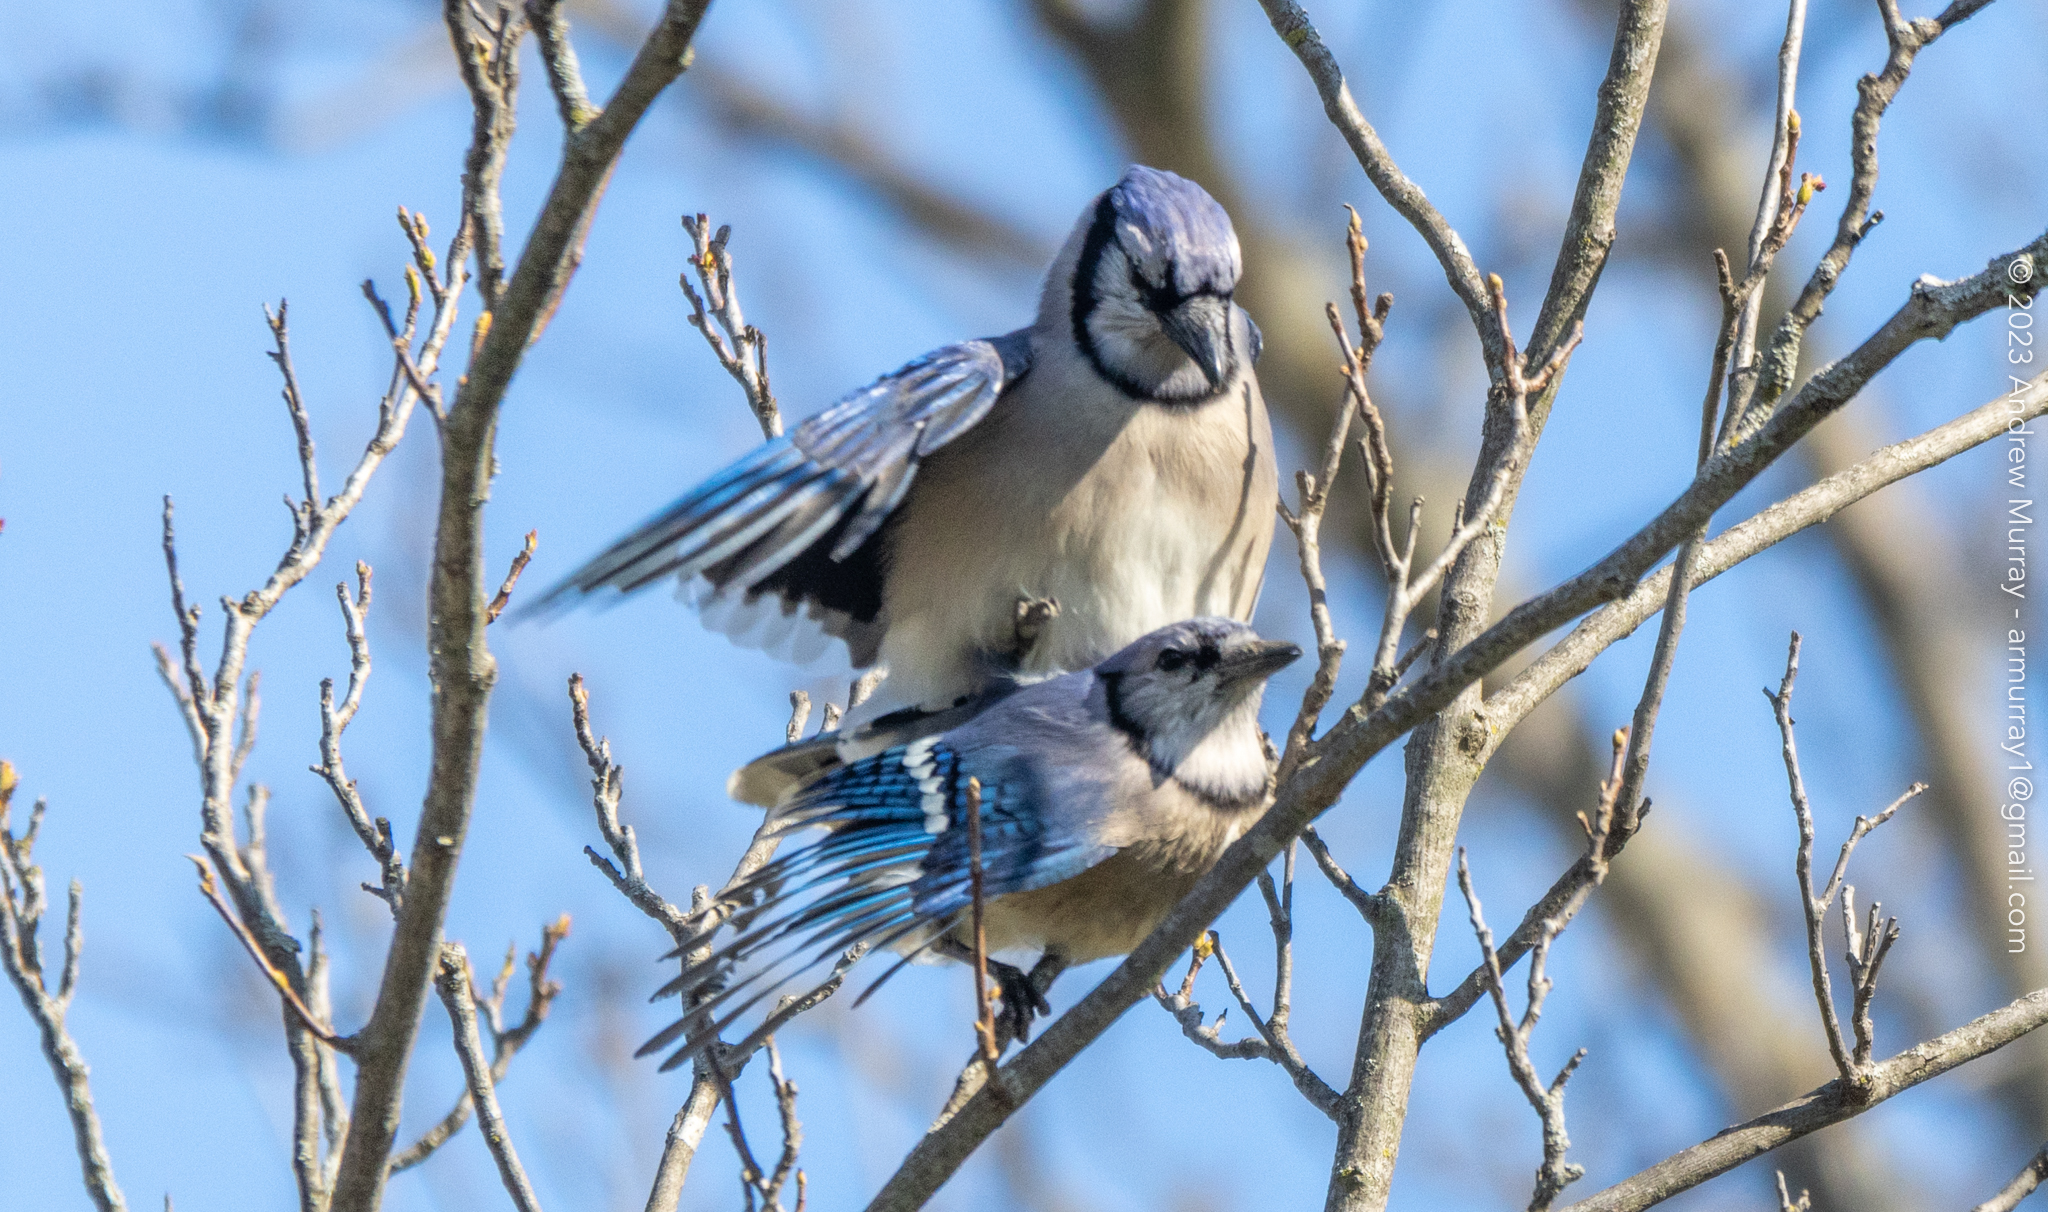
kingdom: Animalia
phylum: Chordata
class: Aves
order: Passeriformes
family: Corvidae
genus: Cyanocitta
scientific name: Cyanocitta cristata
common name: Blue jay
